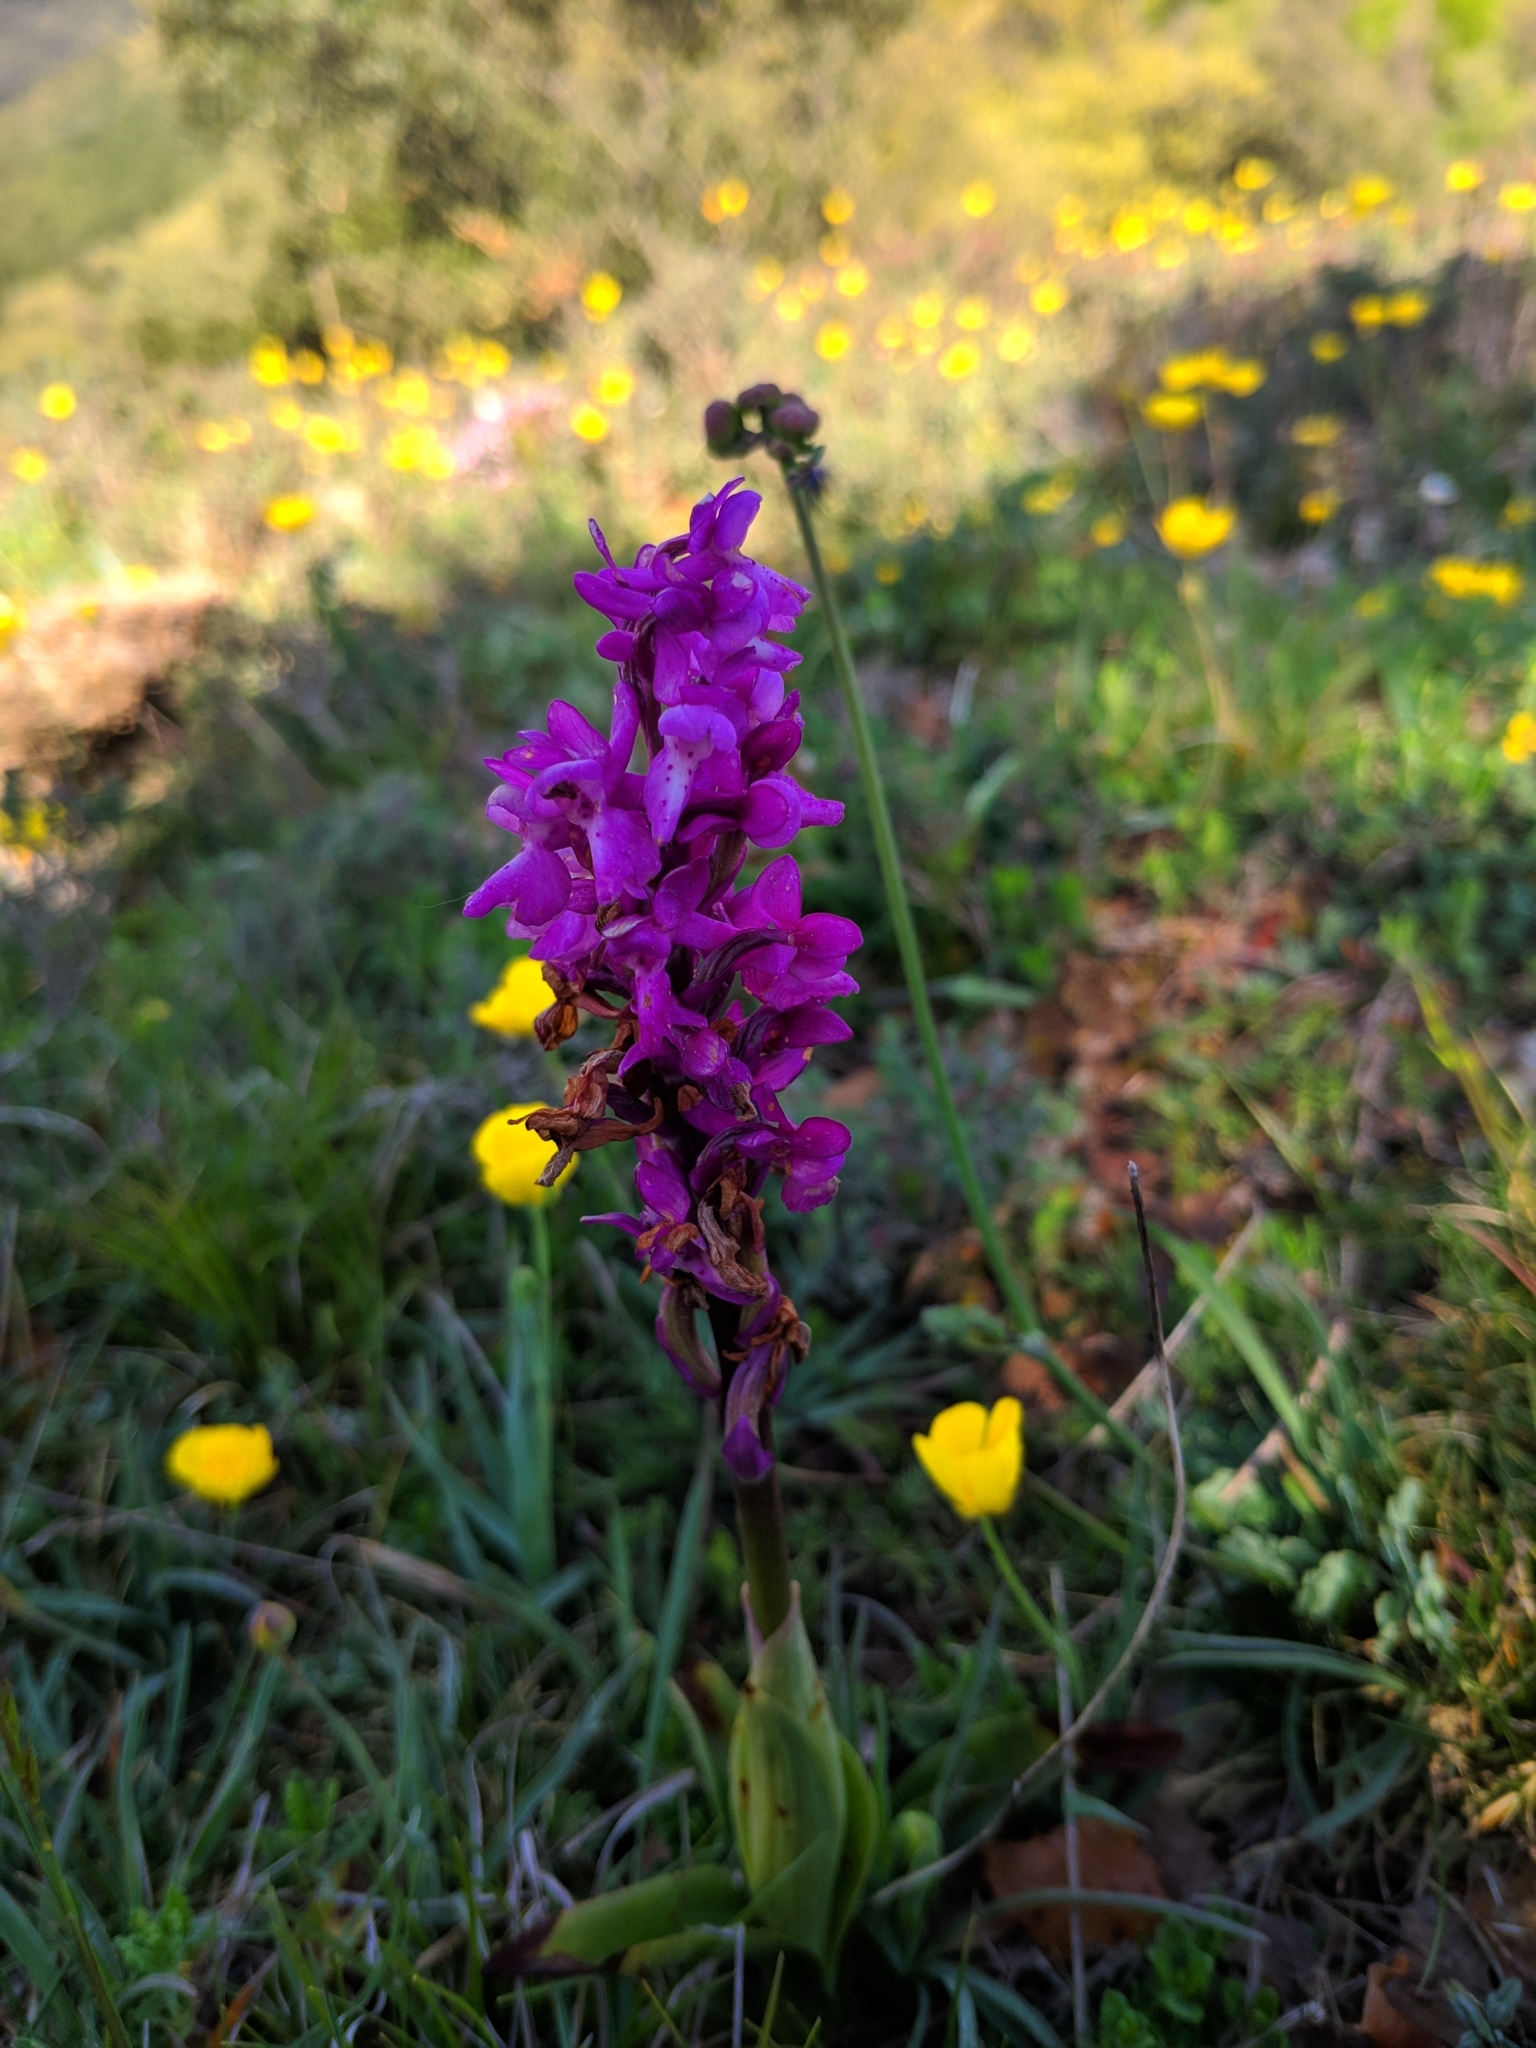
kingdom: Plantae
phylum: Tracheophyta
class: Liliopsida
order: Asparagales
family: Orchidaceae
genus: Orchis
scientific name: Orchis mascula
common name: Early-purple orchid
